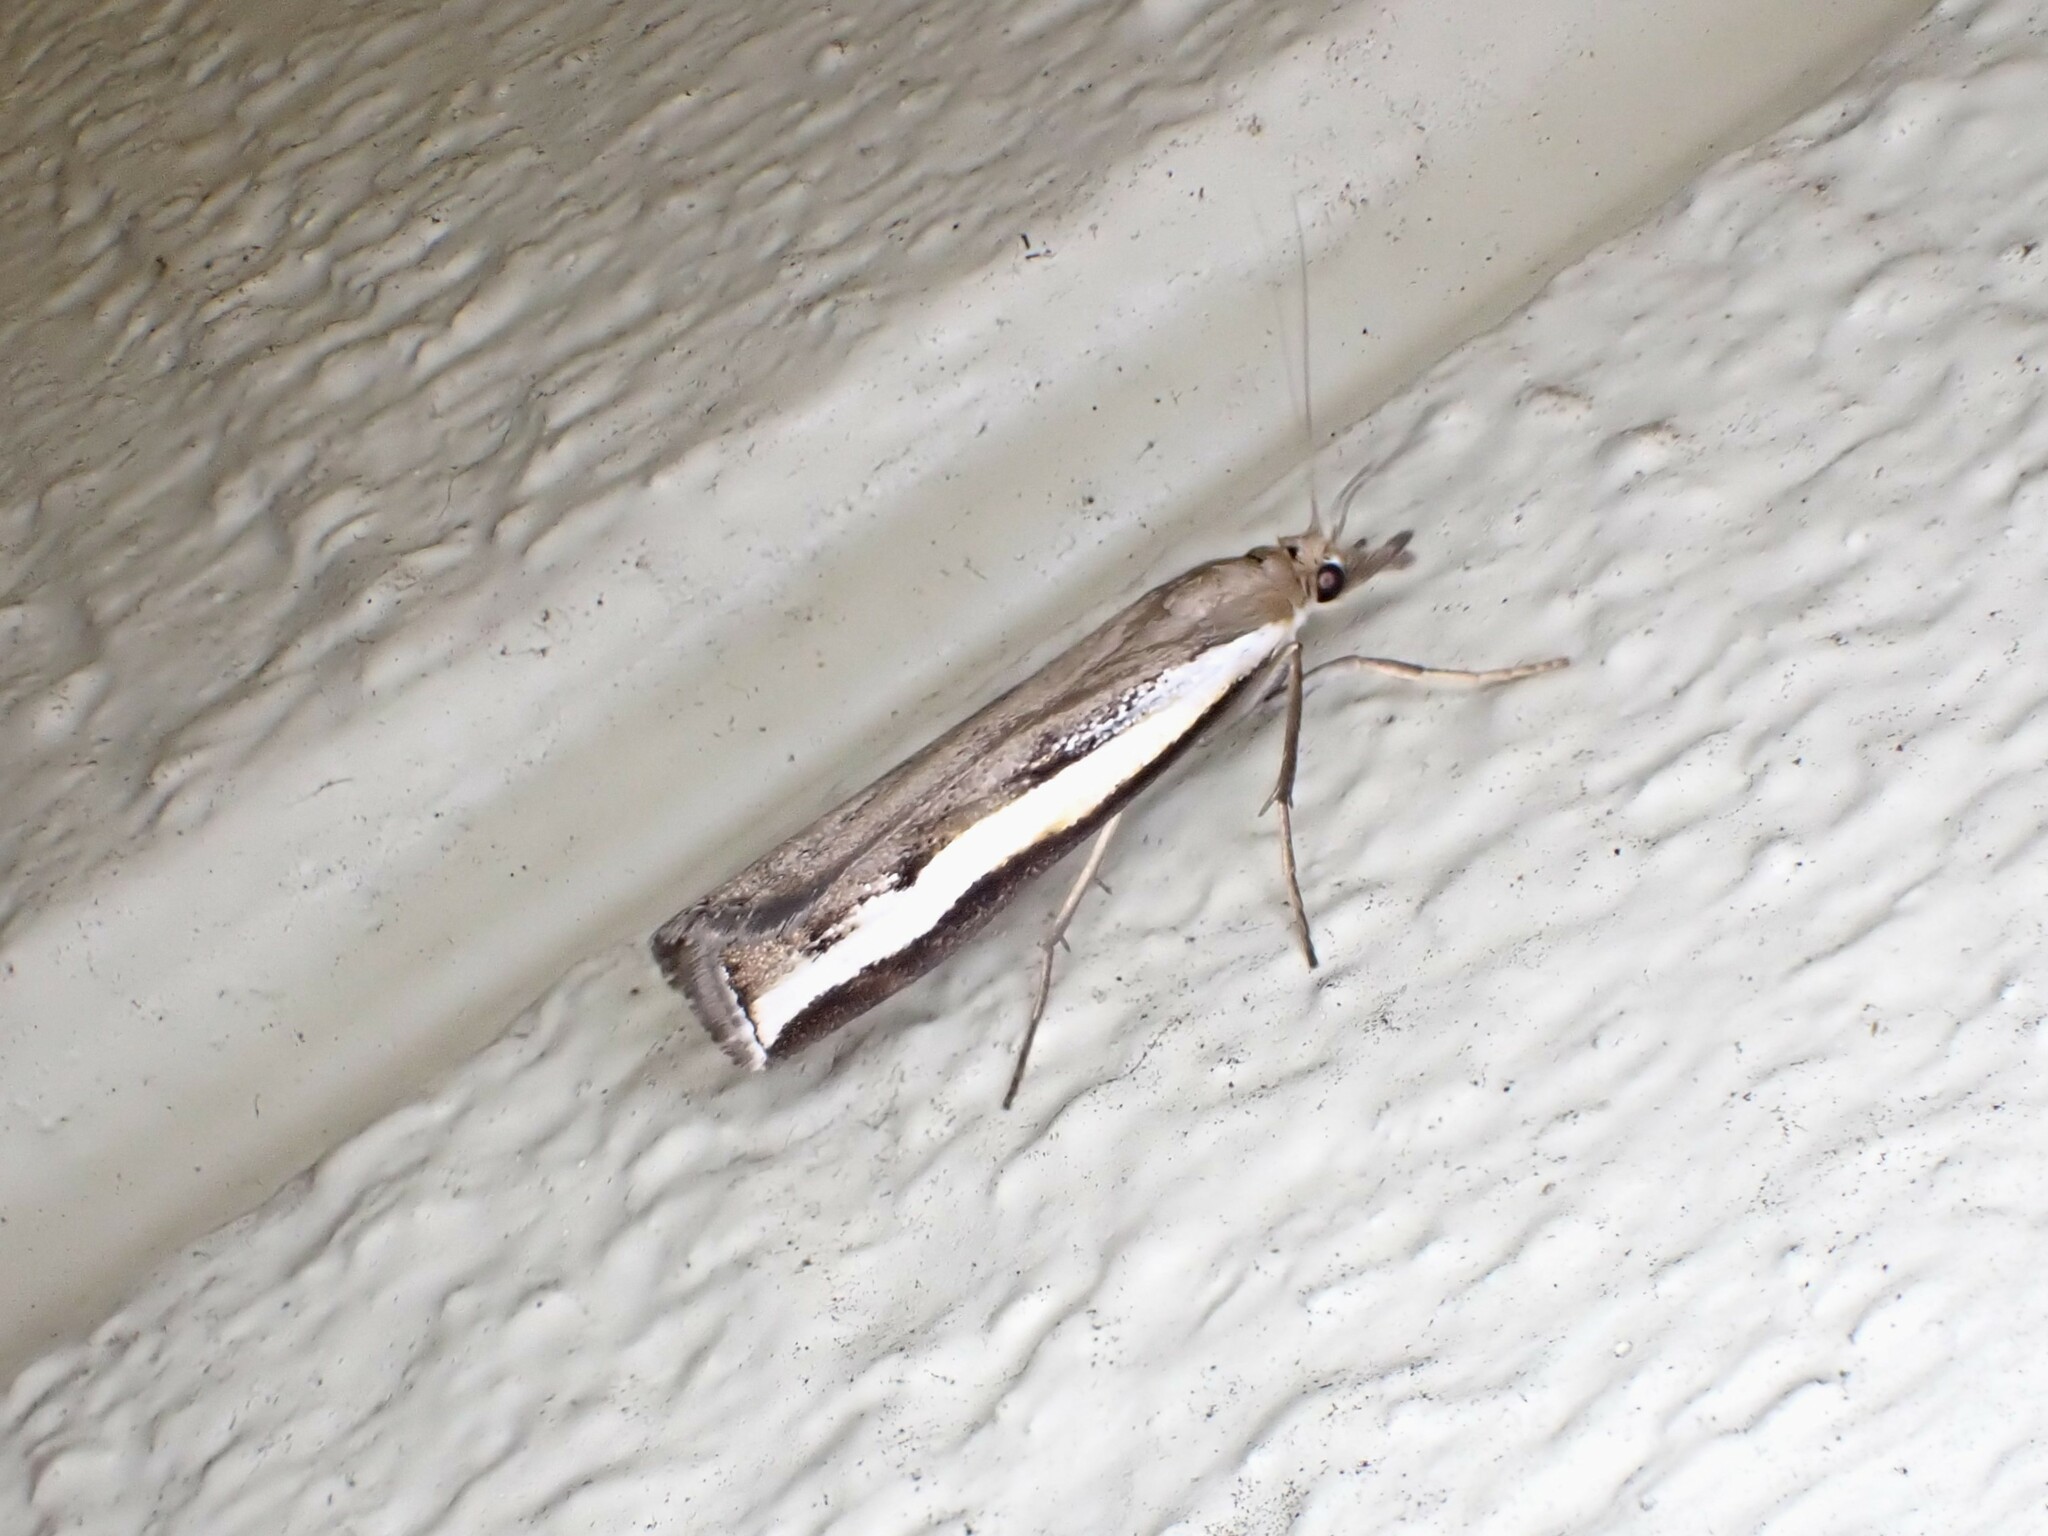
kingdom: Animalia
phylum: Arthropoda
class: Insecta
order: Lepidoptera
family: Crambidae
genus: Orocrambus
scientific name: Orocrambus flexuosellus
